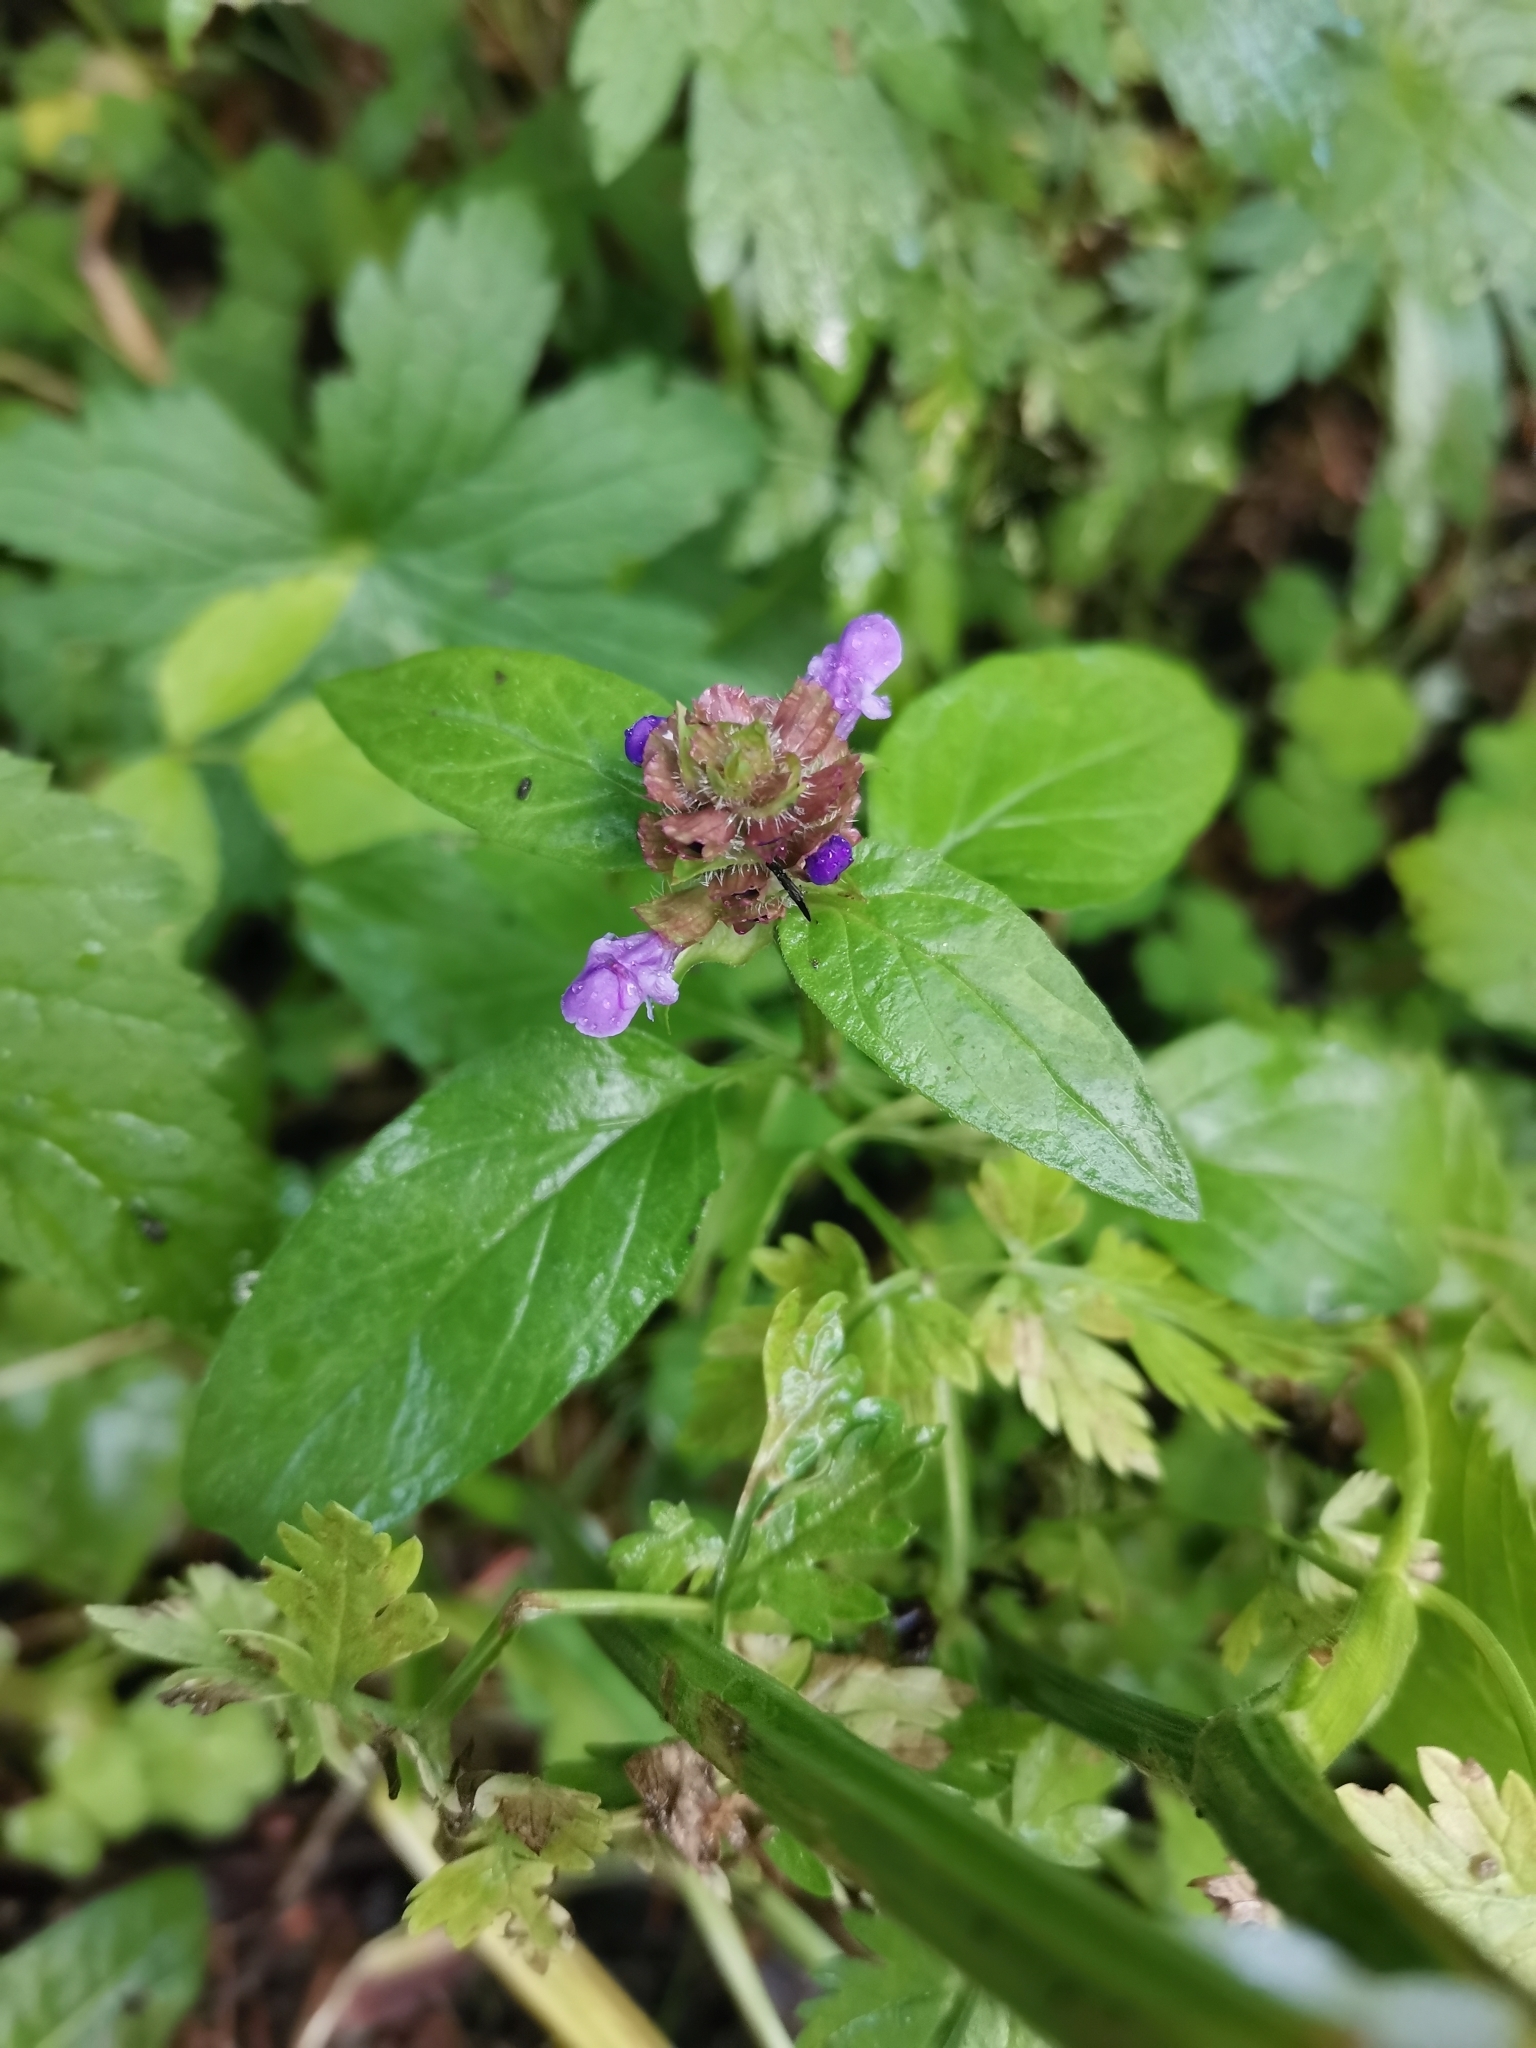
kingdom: Plantae
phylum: Tracheophyta
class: Magnoliopsida
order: Lamiales
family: Lamiaceae
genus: Prunella
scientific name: Prunella vulgaris
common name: Heal-all
